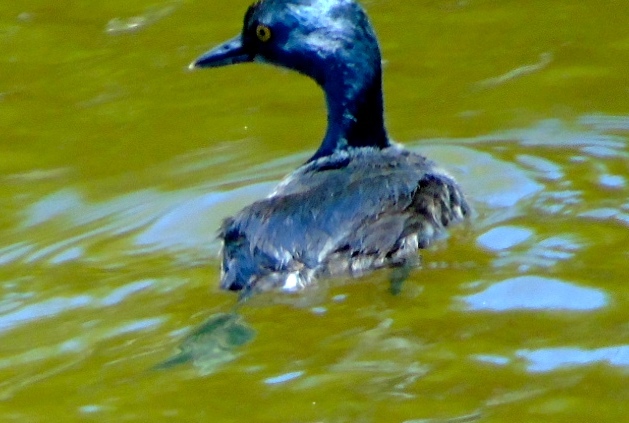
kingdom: Animalia
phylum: Chordata
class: Aves
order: Podicipediformes
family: Podicipedidae
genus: Tachybaptus
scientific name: Tachybaptus dominicus
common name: Least grebe
